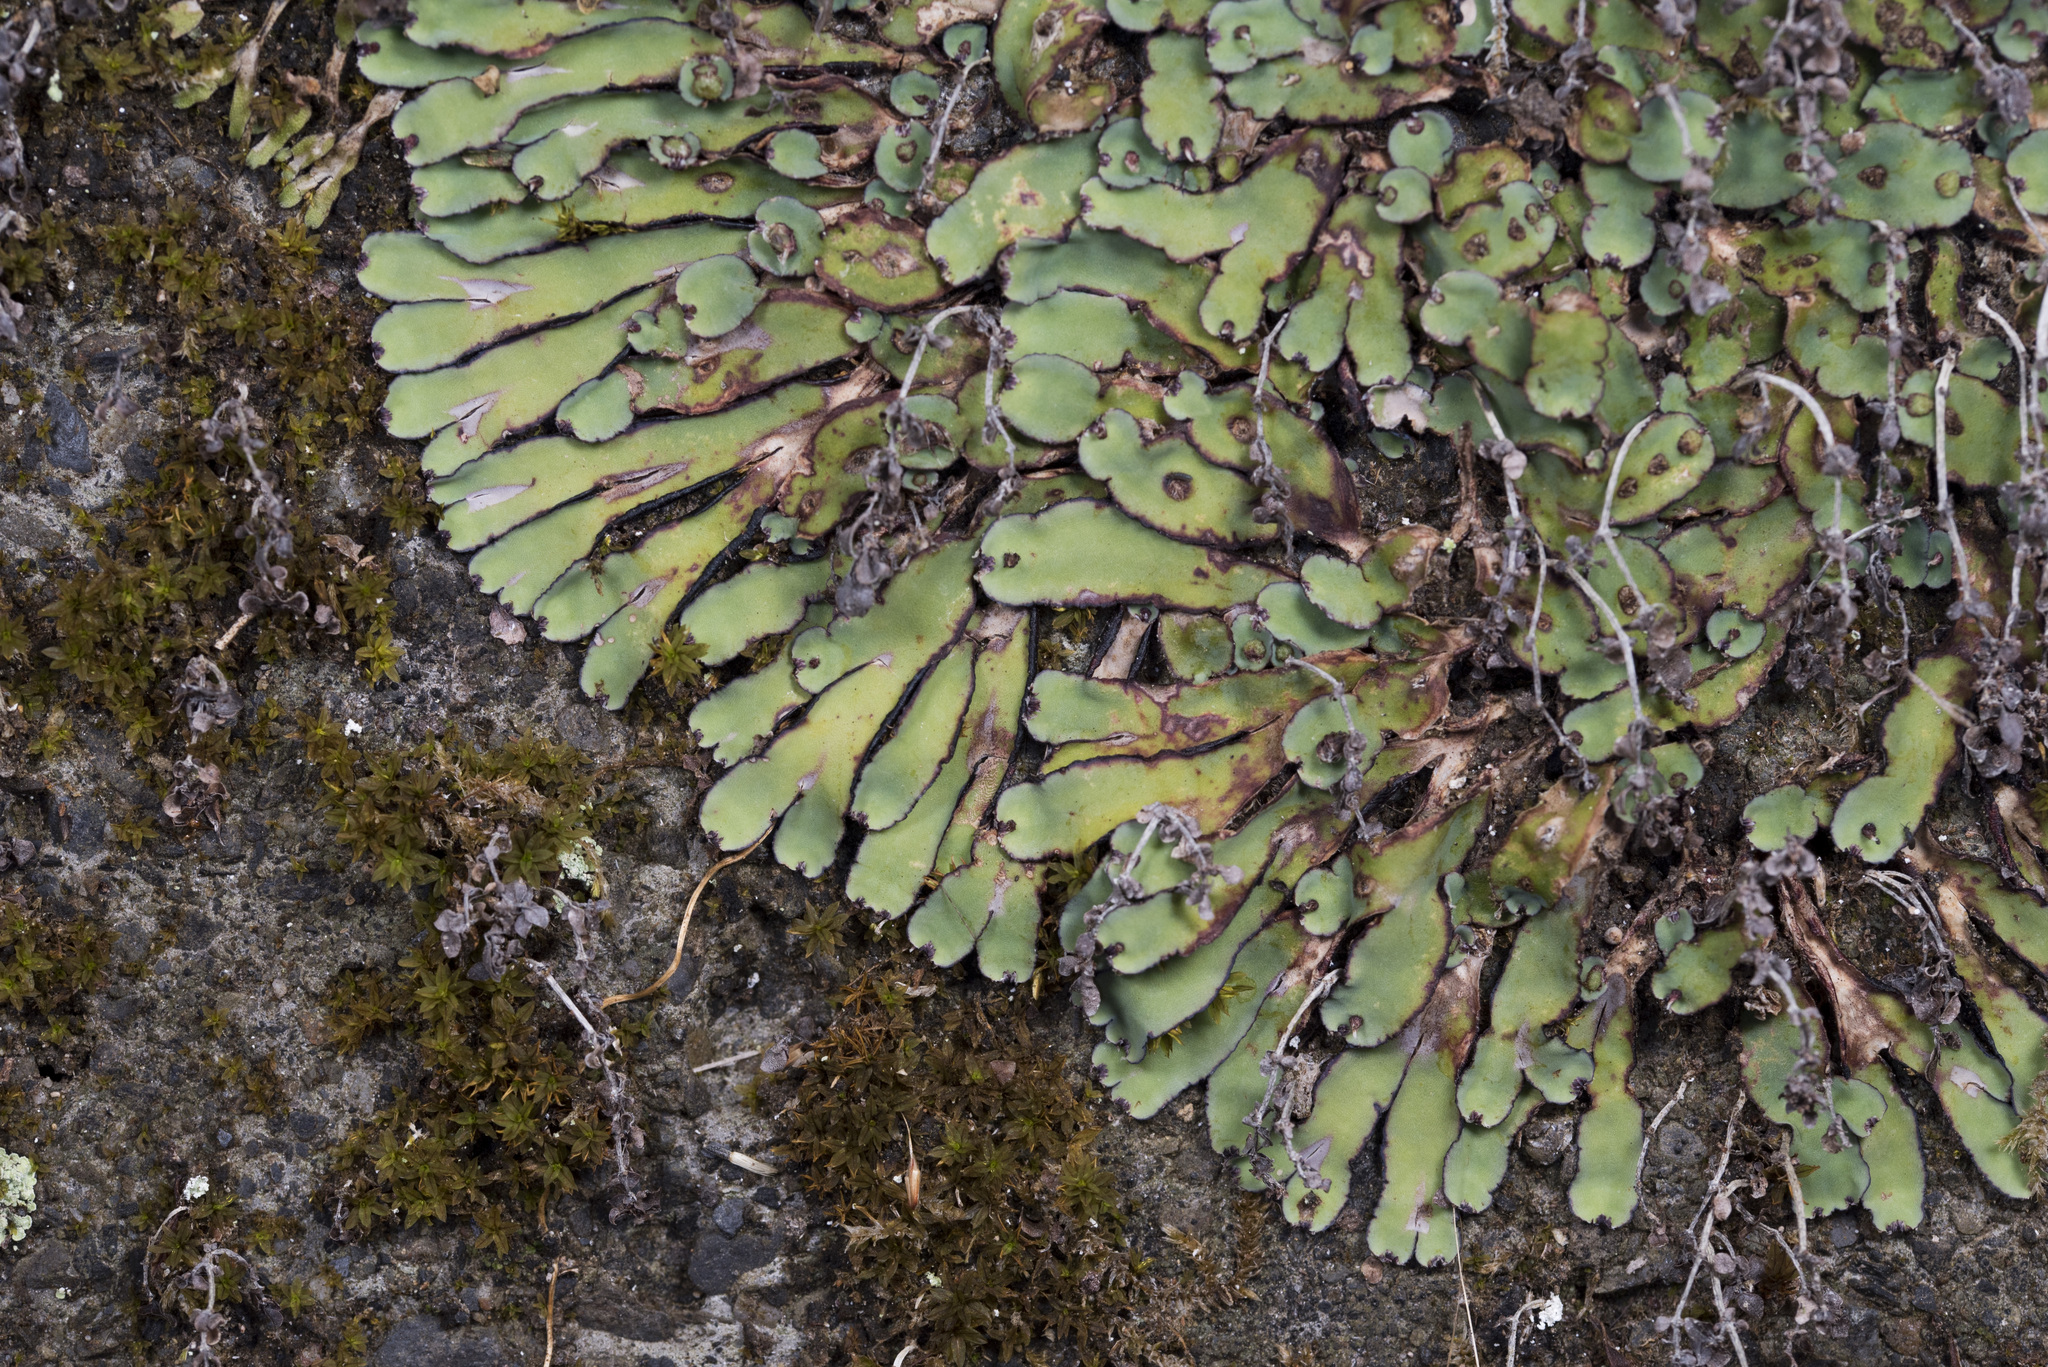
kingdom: Plantae
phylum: Marchantiophyta
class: Marchantiopsida
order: Marchantiales
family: Aytoniaceae
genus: Plagiochasma
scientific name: Plagiochasma rupestre
